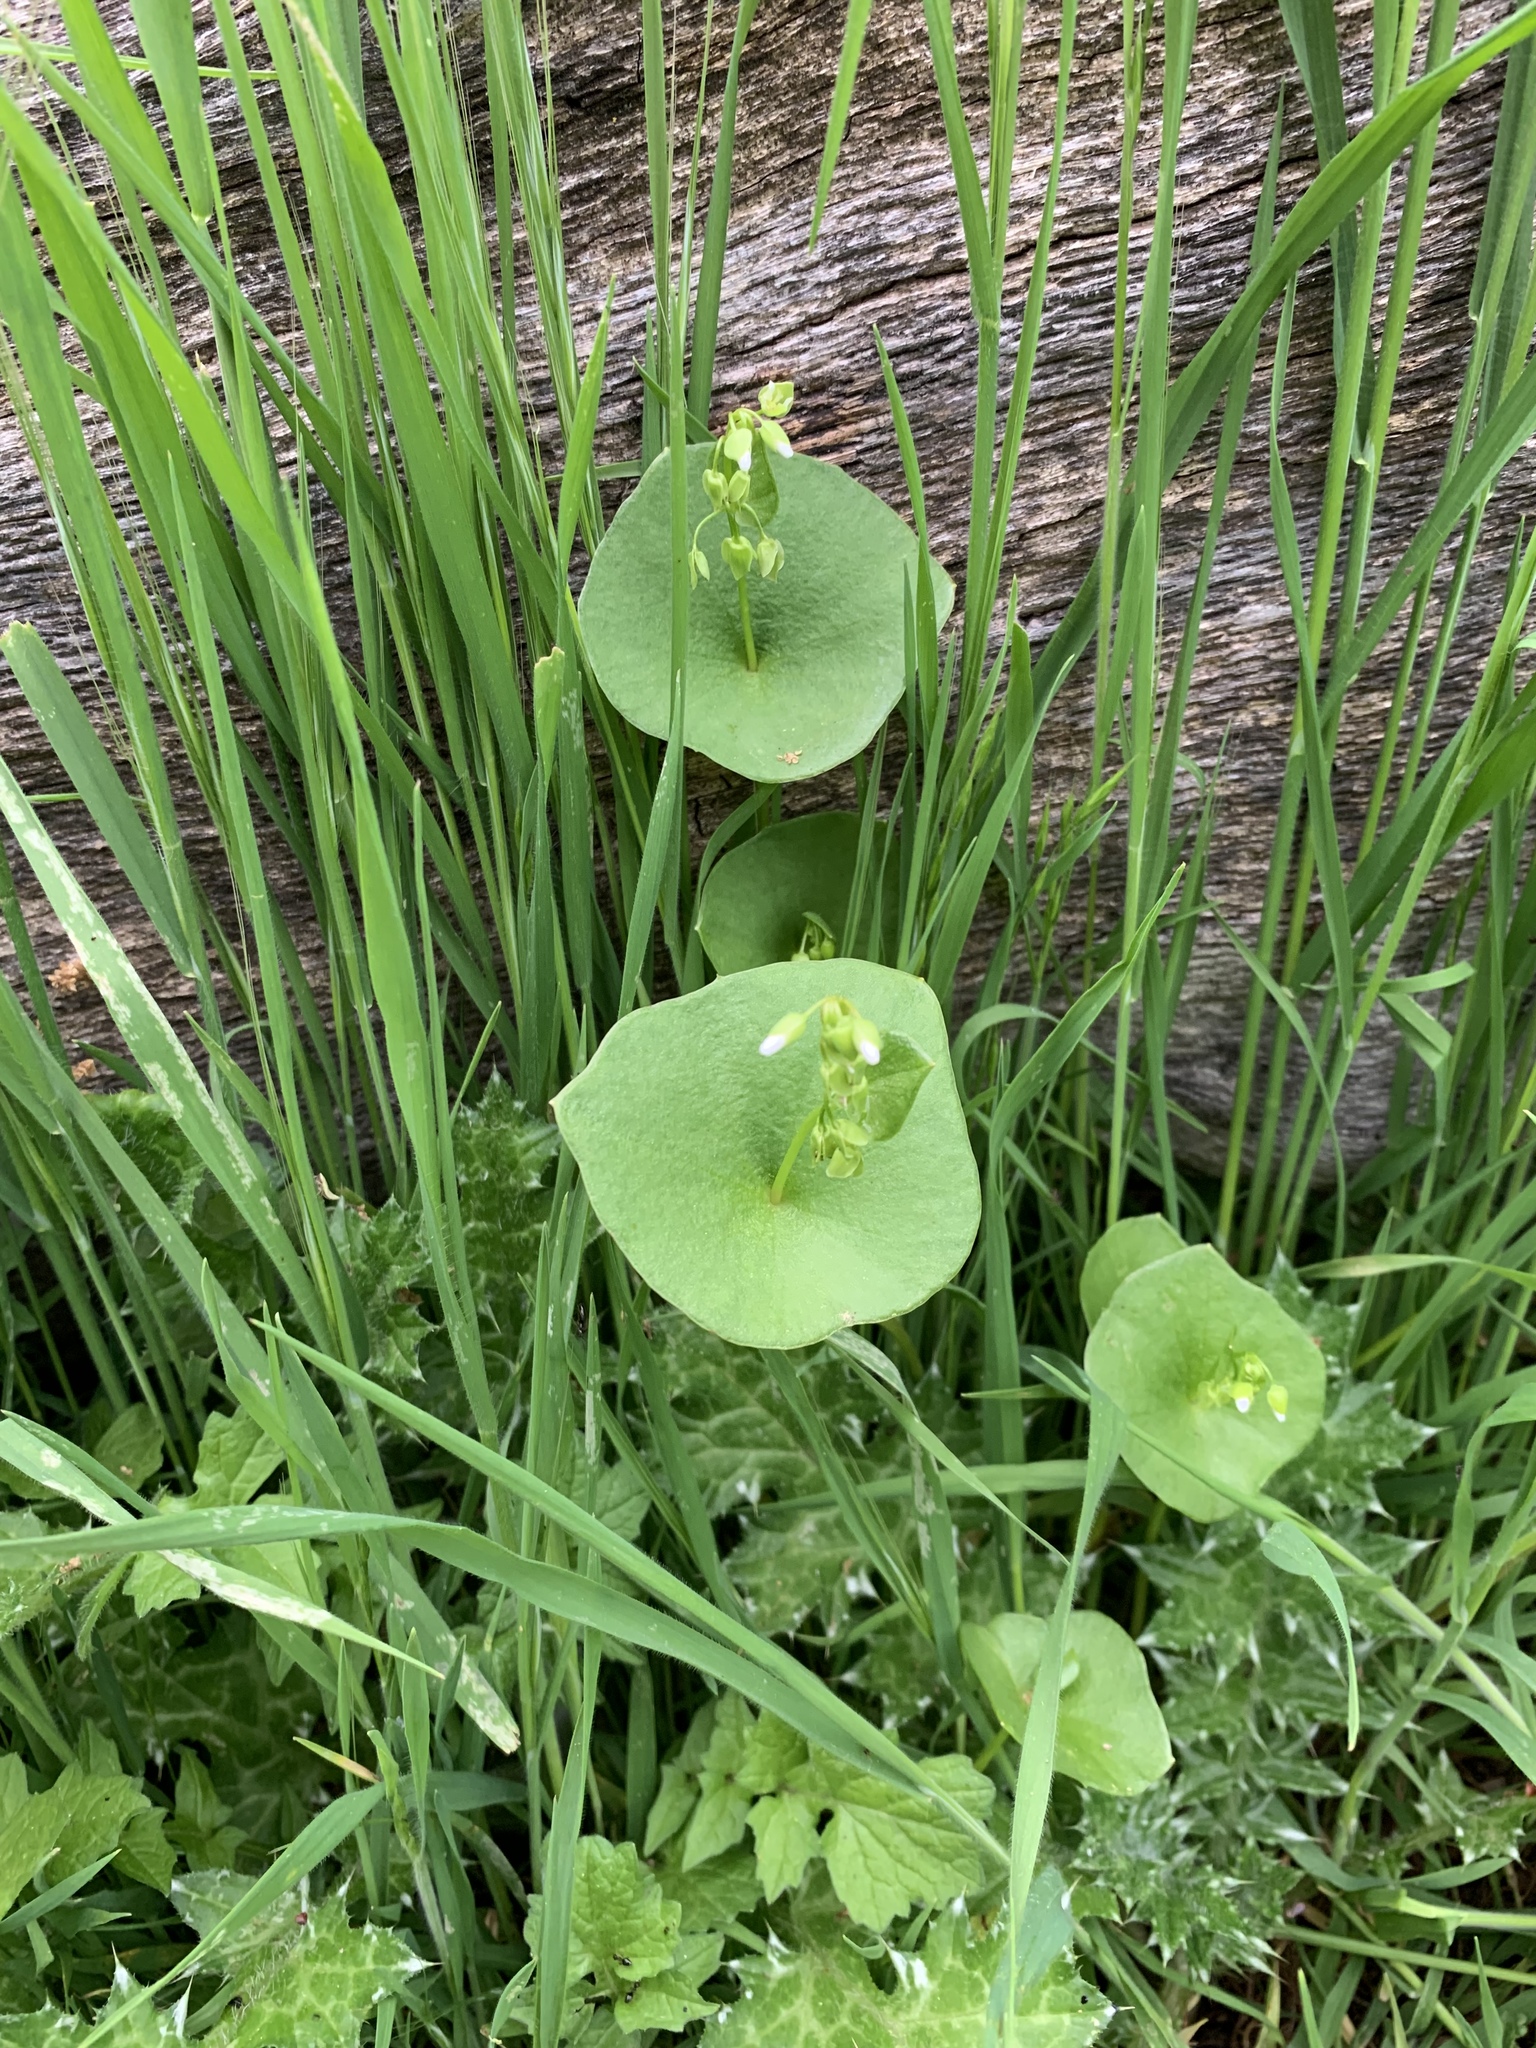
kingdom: Plantae
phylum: Tracheophyta
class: Magnoliopsida
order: Caryophyllales
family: Montiaceae
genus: Claytonia
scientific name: Claytonia perfoliata
